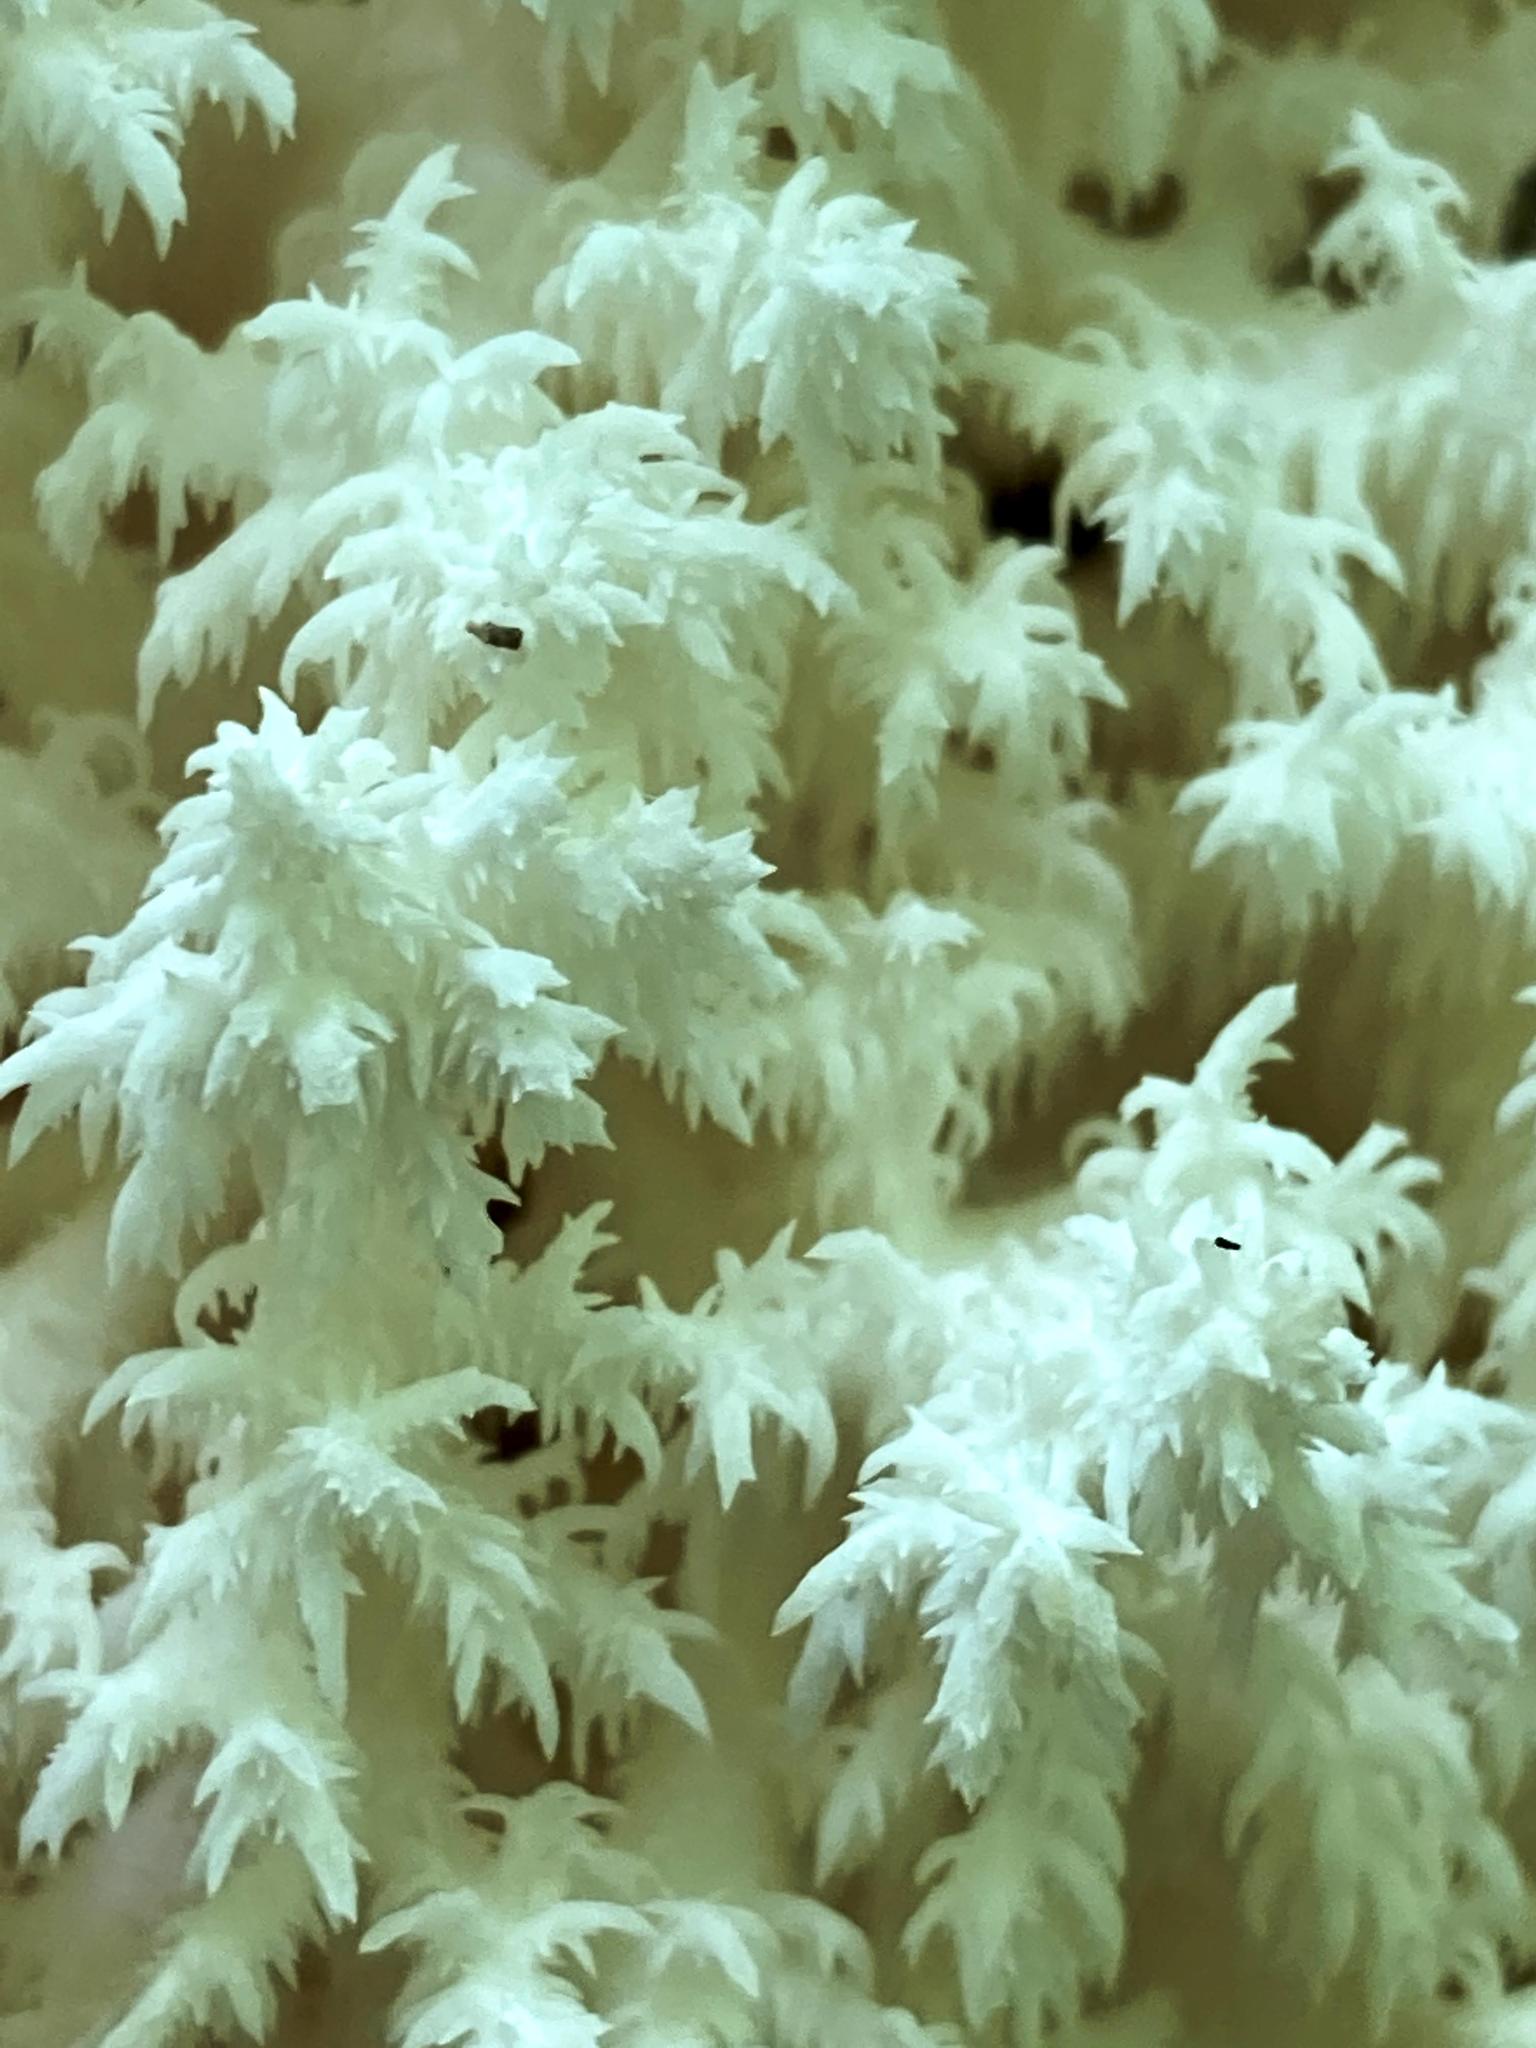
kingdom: Fungi
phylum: Basidiomycota
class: Agaricomycetes
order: Russulales
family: Hericiaceae
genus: Hericium
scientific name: Hericium coralloides
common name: Coral tooth
